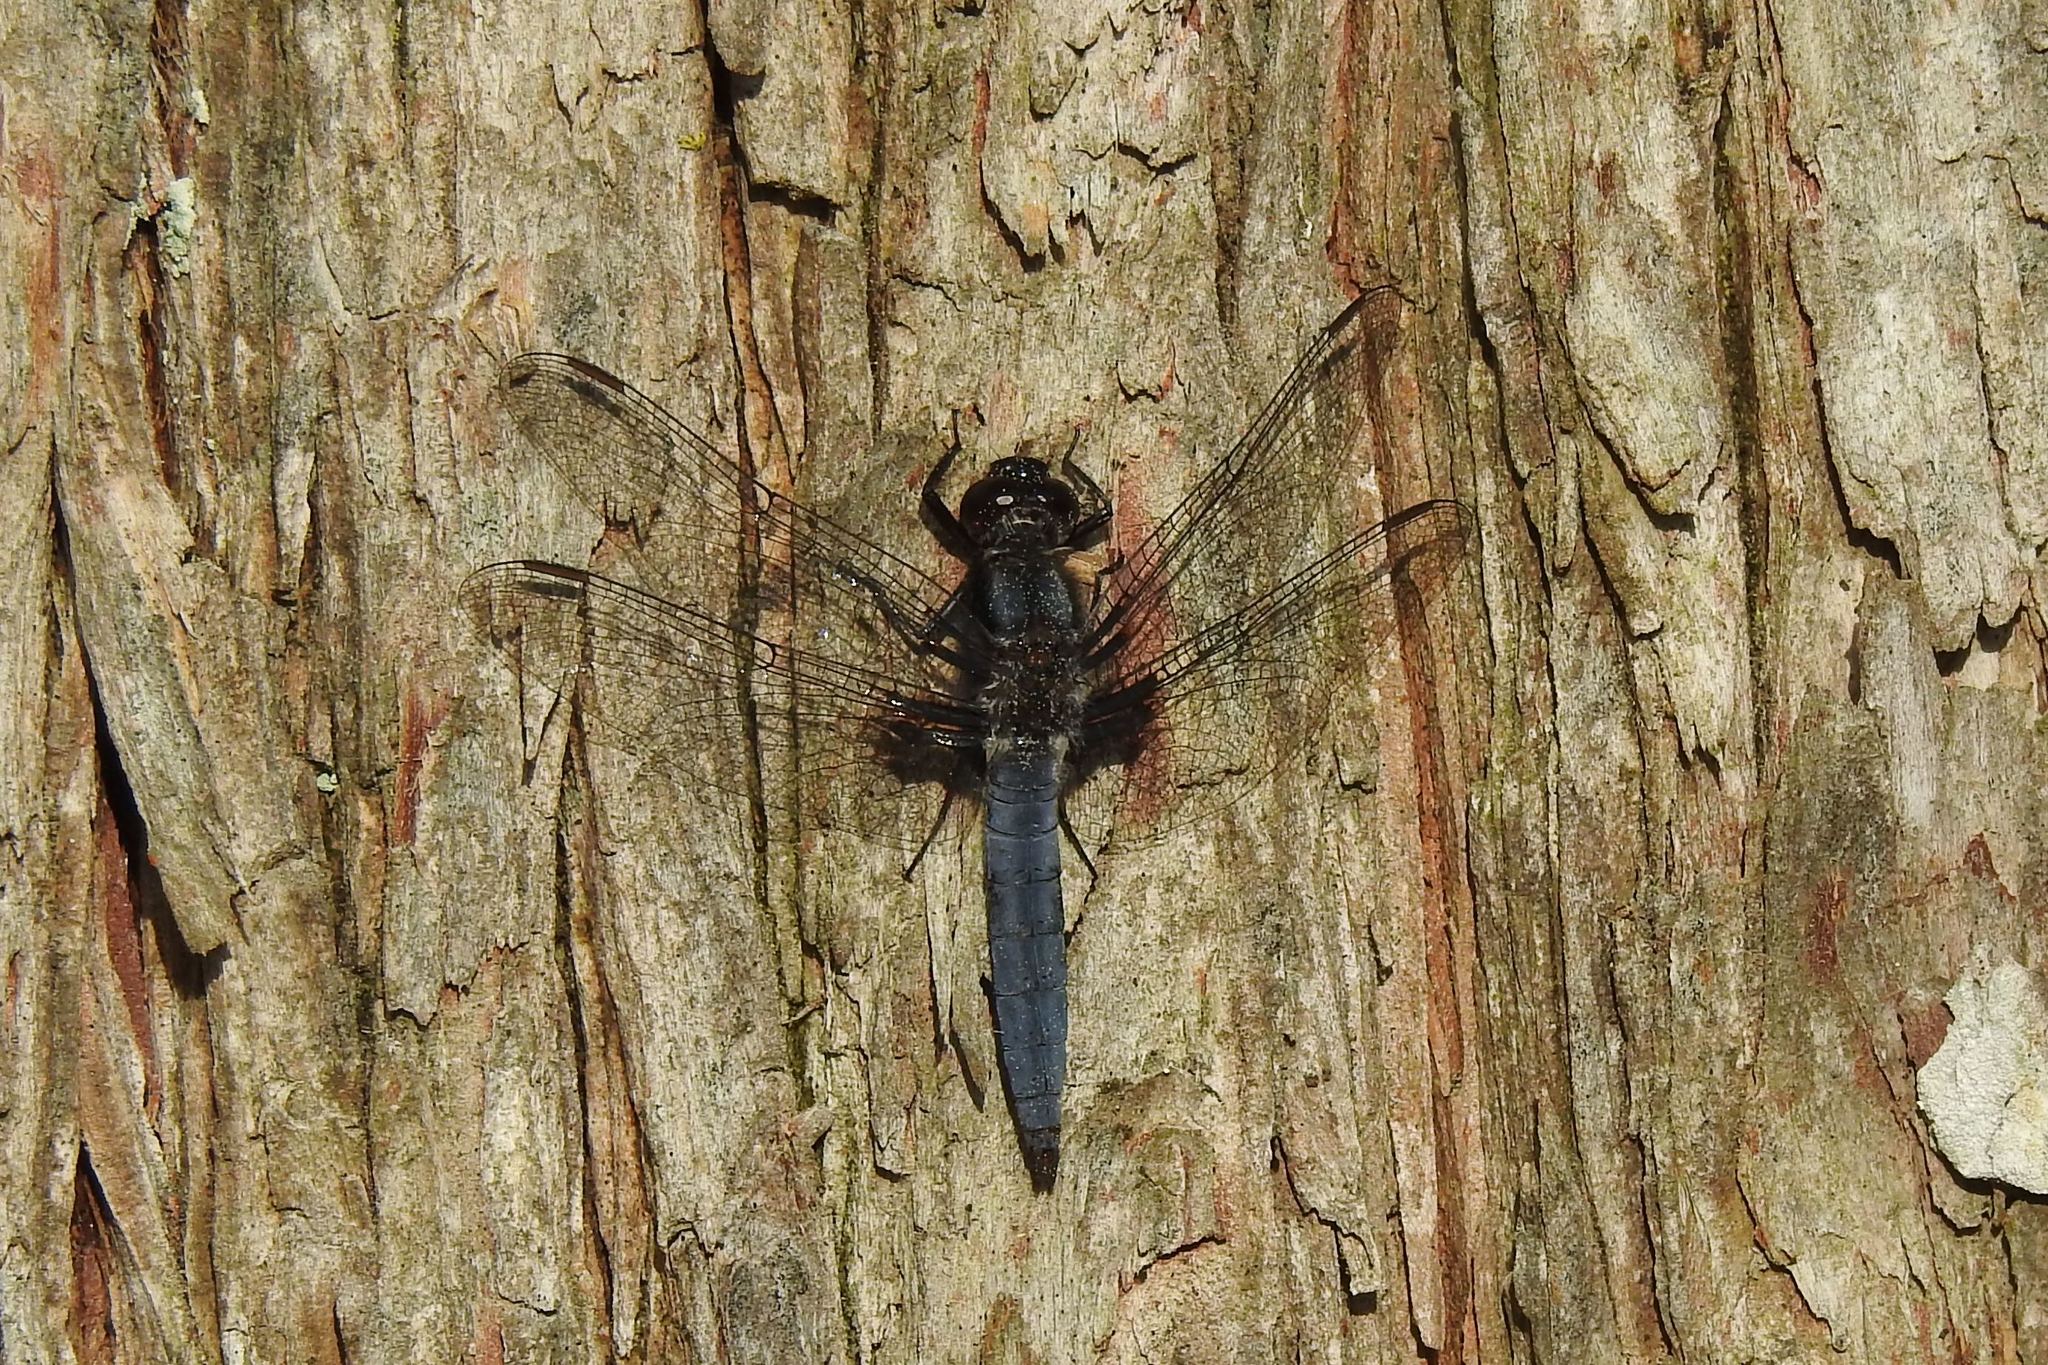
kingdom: Animalia
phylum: Arthropoda
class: Insecta
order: Odonata
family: Libellulidae
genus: Ladona
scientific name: Ladona deplanata
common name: Blue corporal
